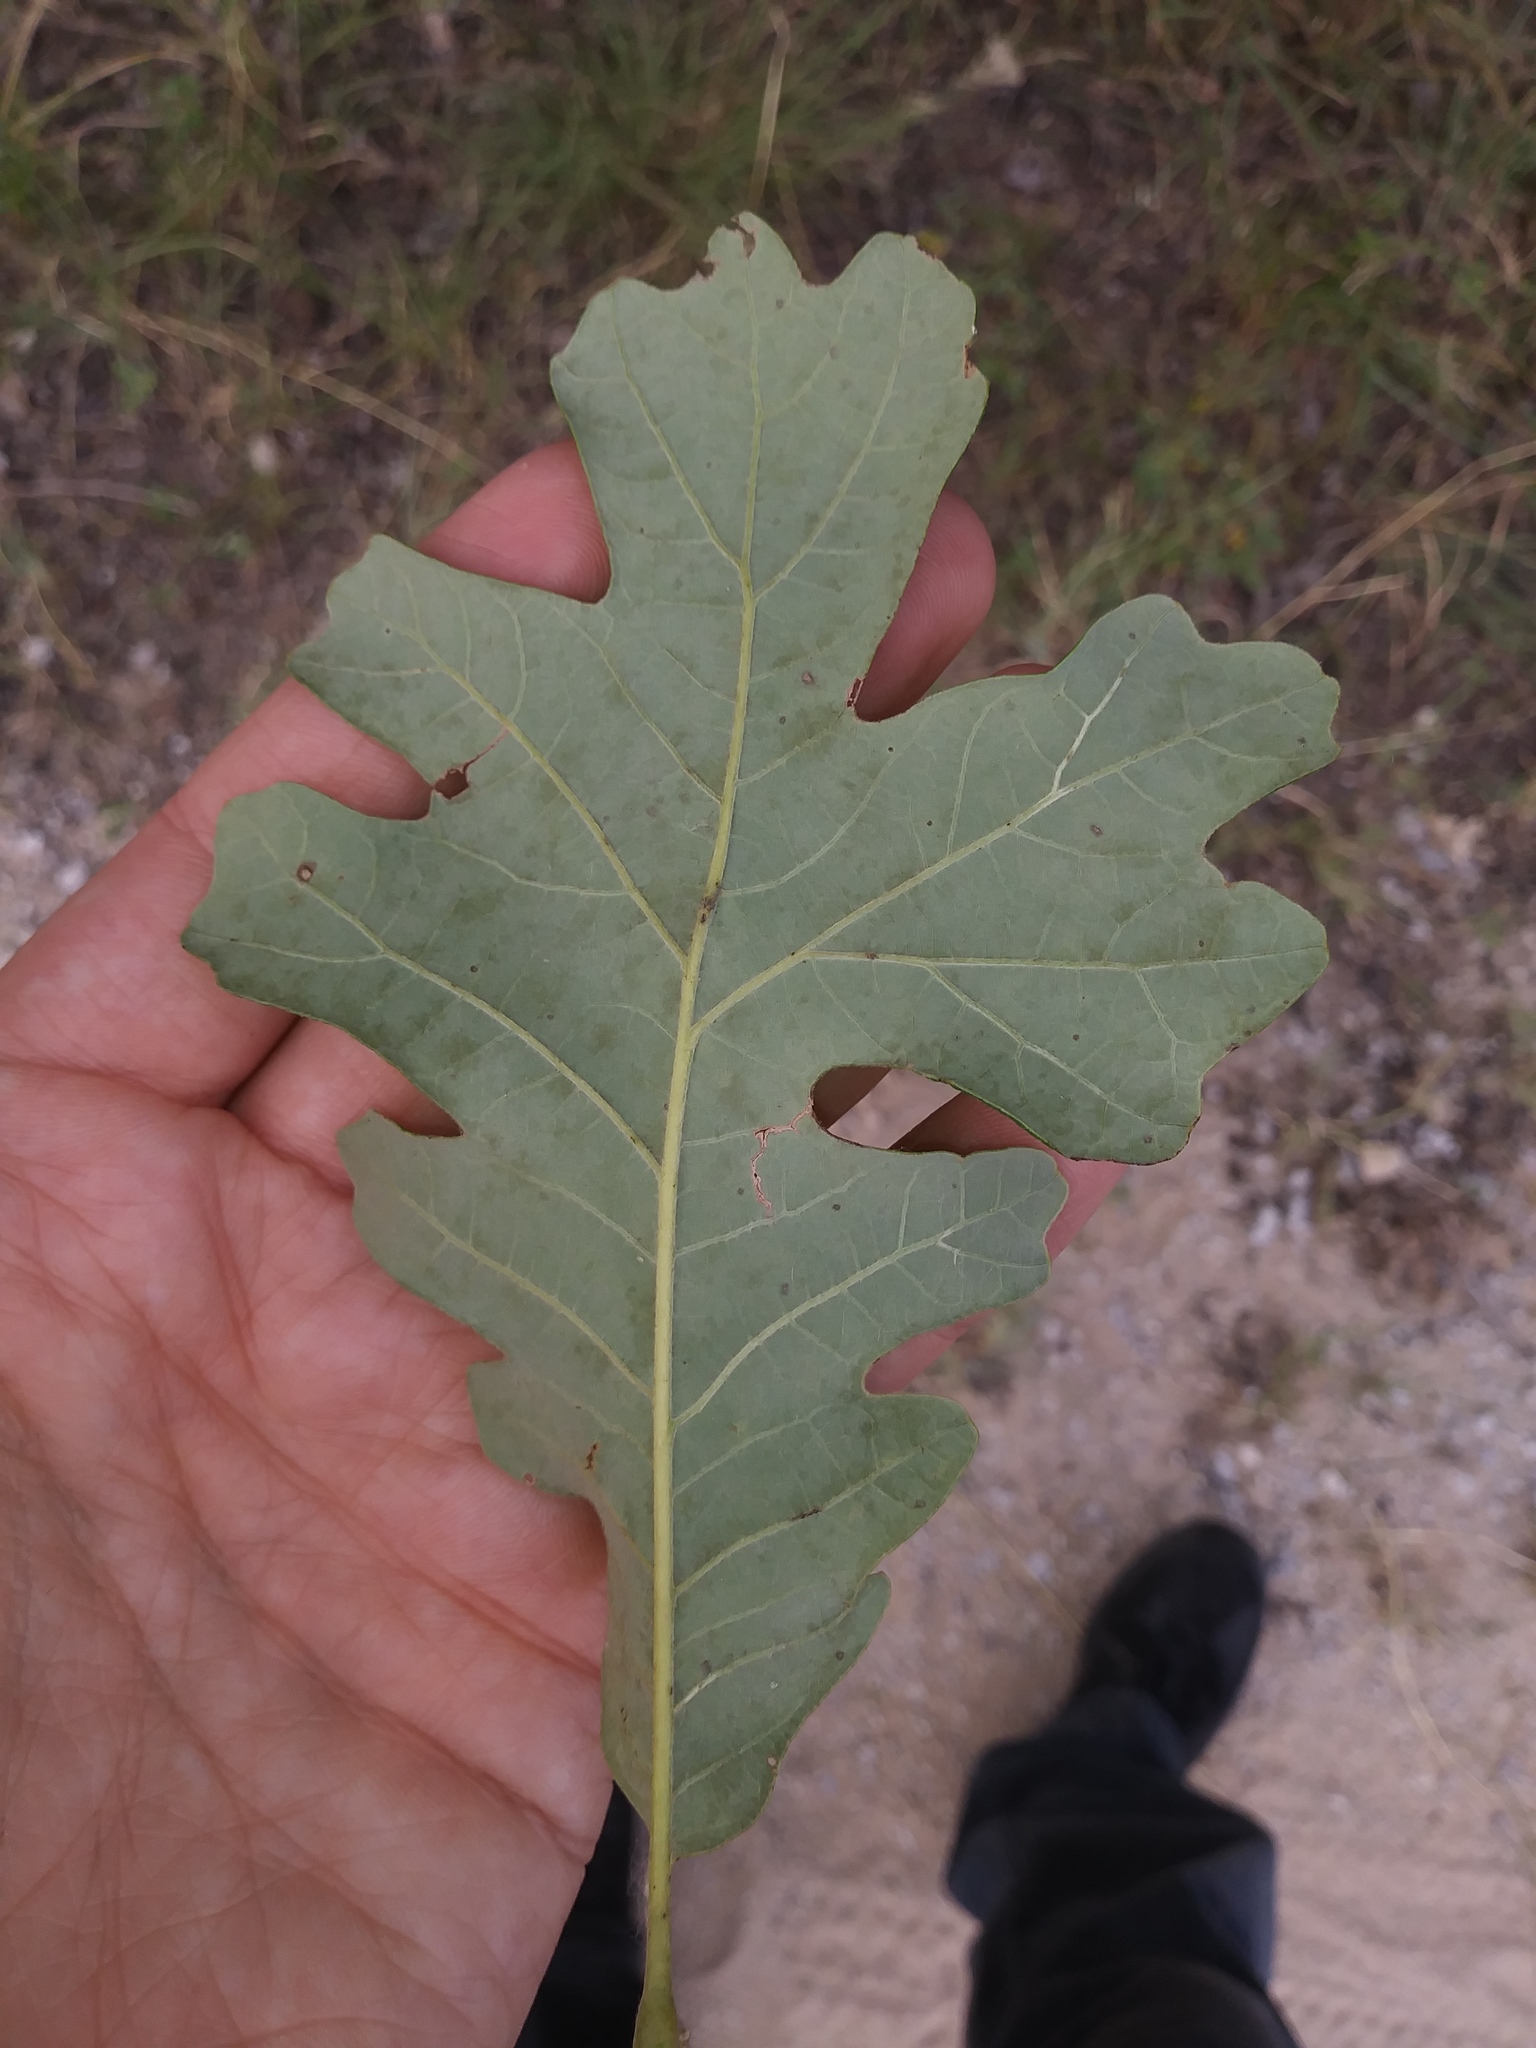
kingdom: Plantae
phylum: Tracheophyta
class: Magnoliopsida
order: Fagales
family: Fagaceae
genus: Quercus
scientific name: Quercus macrocarpa
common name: Bur oak
